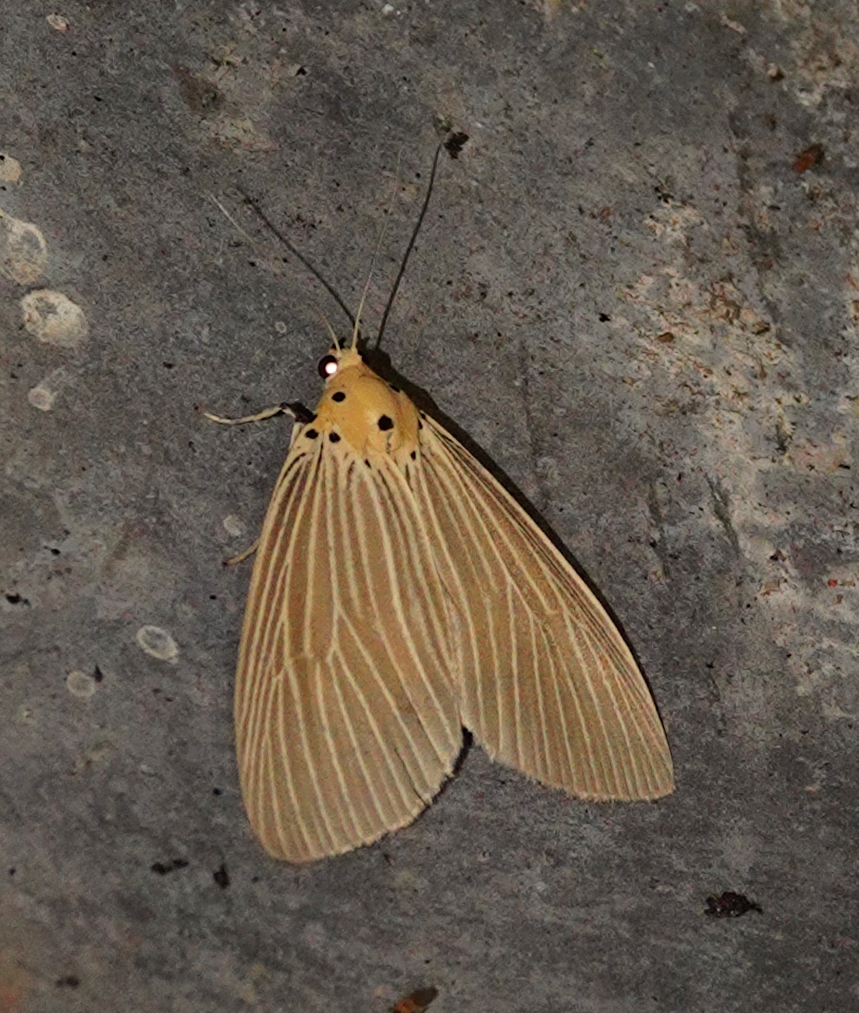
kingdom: Animalia
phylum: Arthropoda
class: Insecta
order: Lepidoptera
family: Erebidae
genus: Neochera
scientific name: Neochera inops
